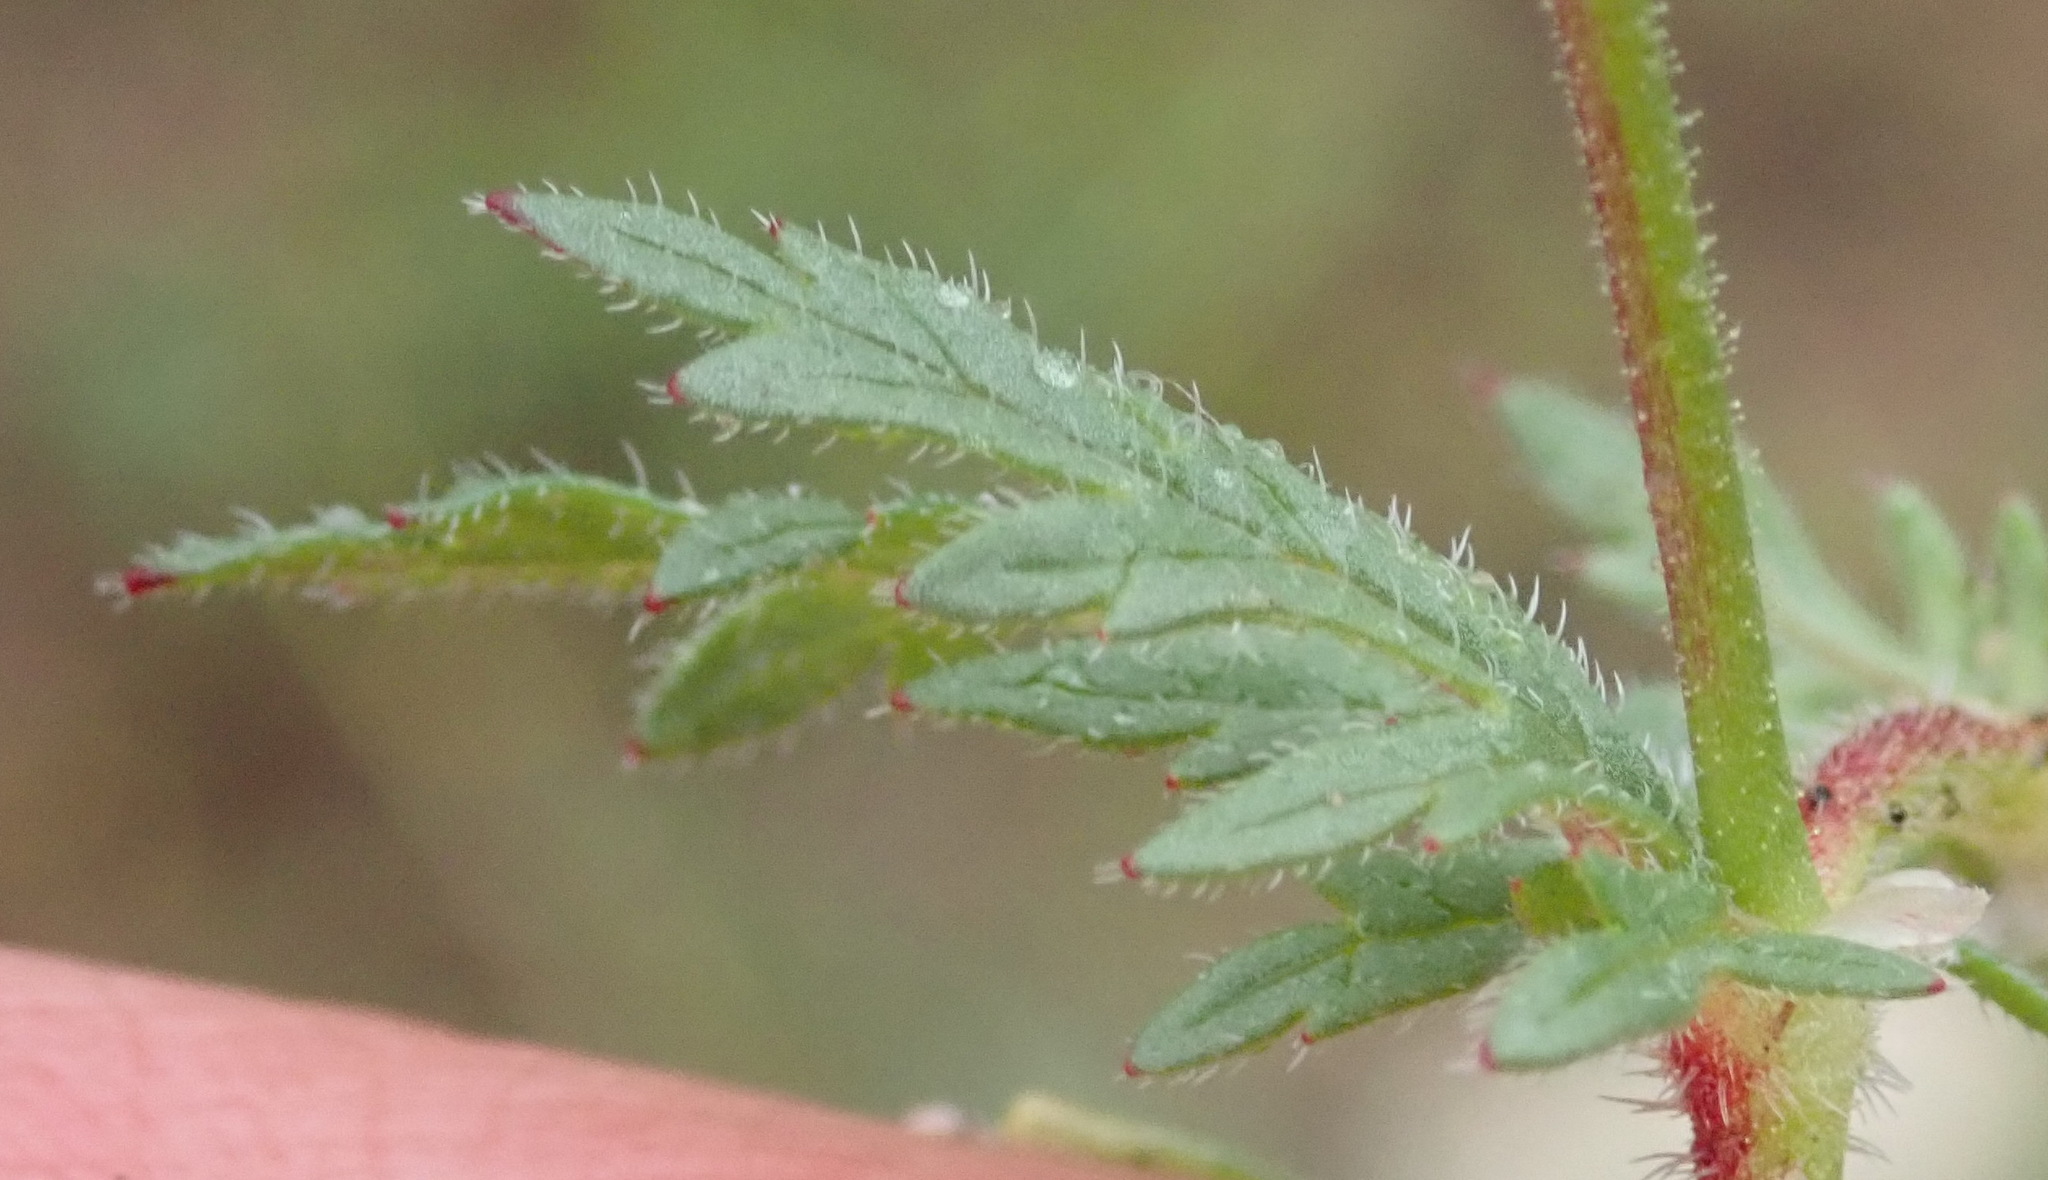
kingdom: Plantae
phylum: Tracheophyta
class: Magnoliopsida
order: Geraniales
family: Geraniaceae
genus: Geranium
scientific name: Geranium ornithopodon
